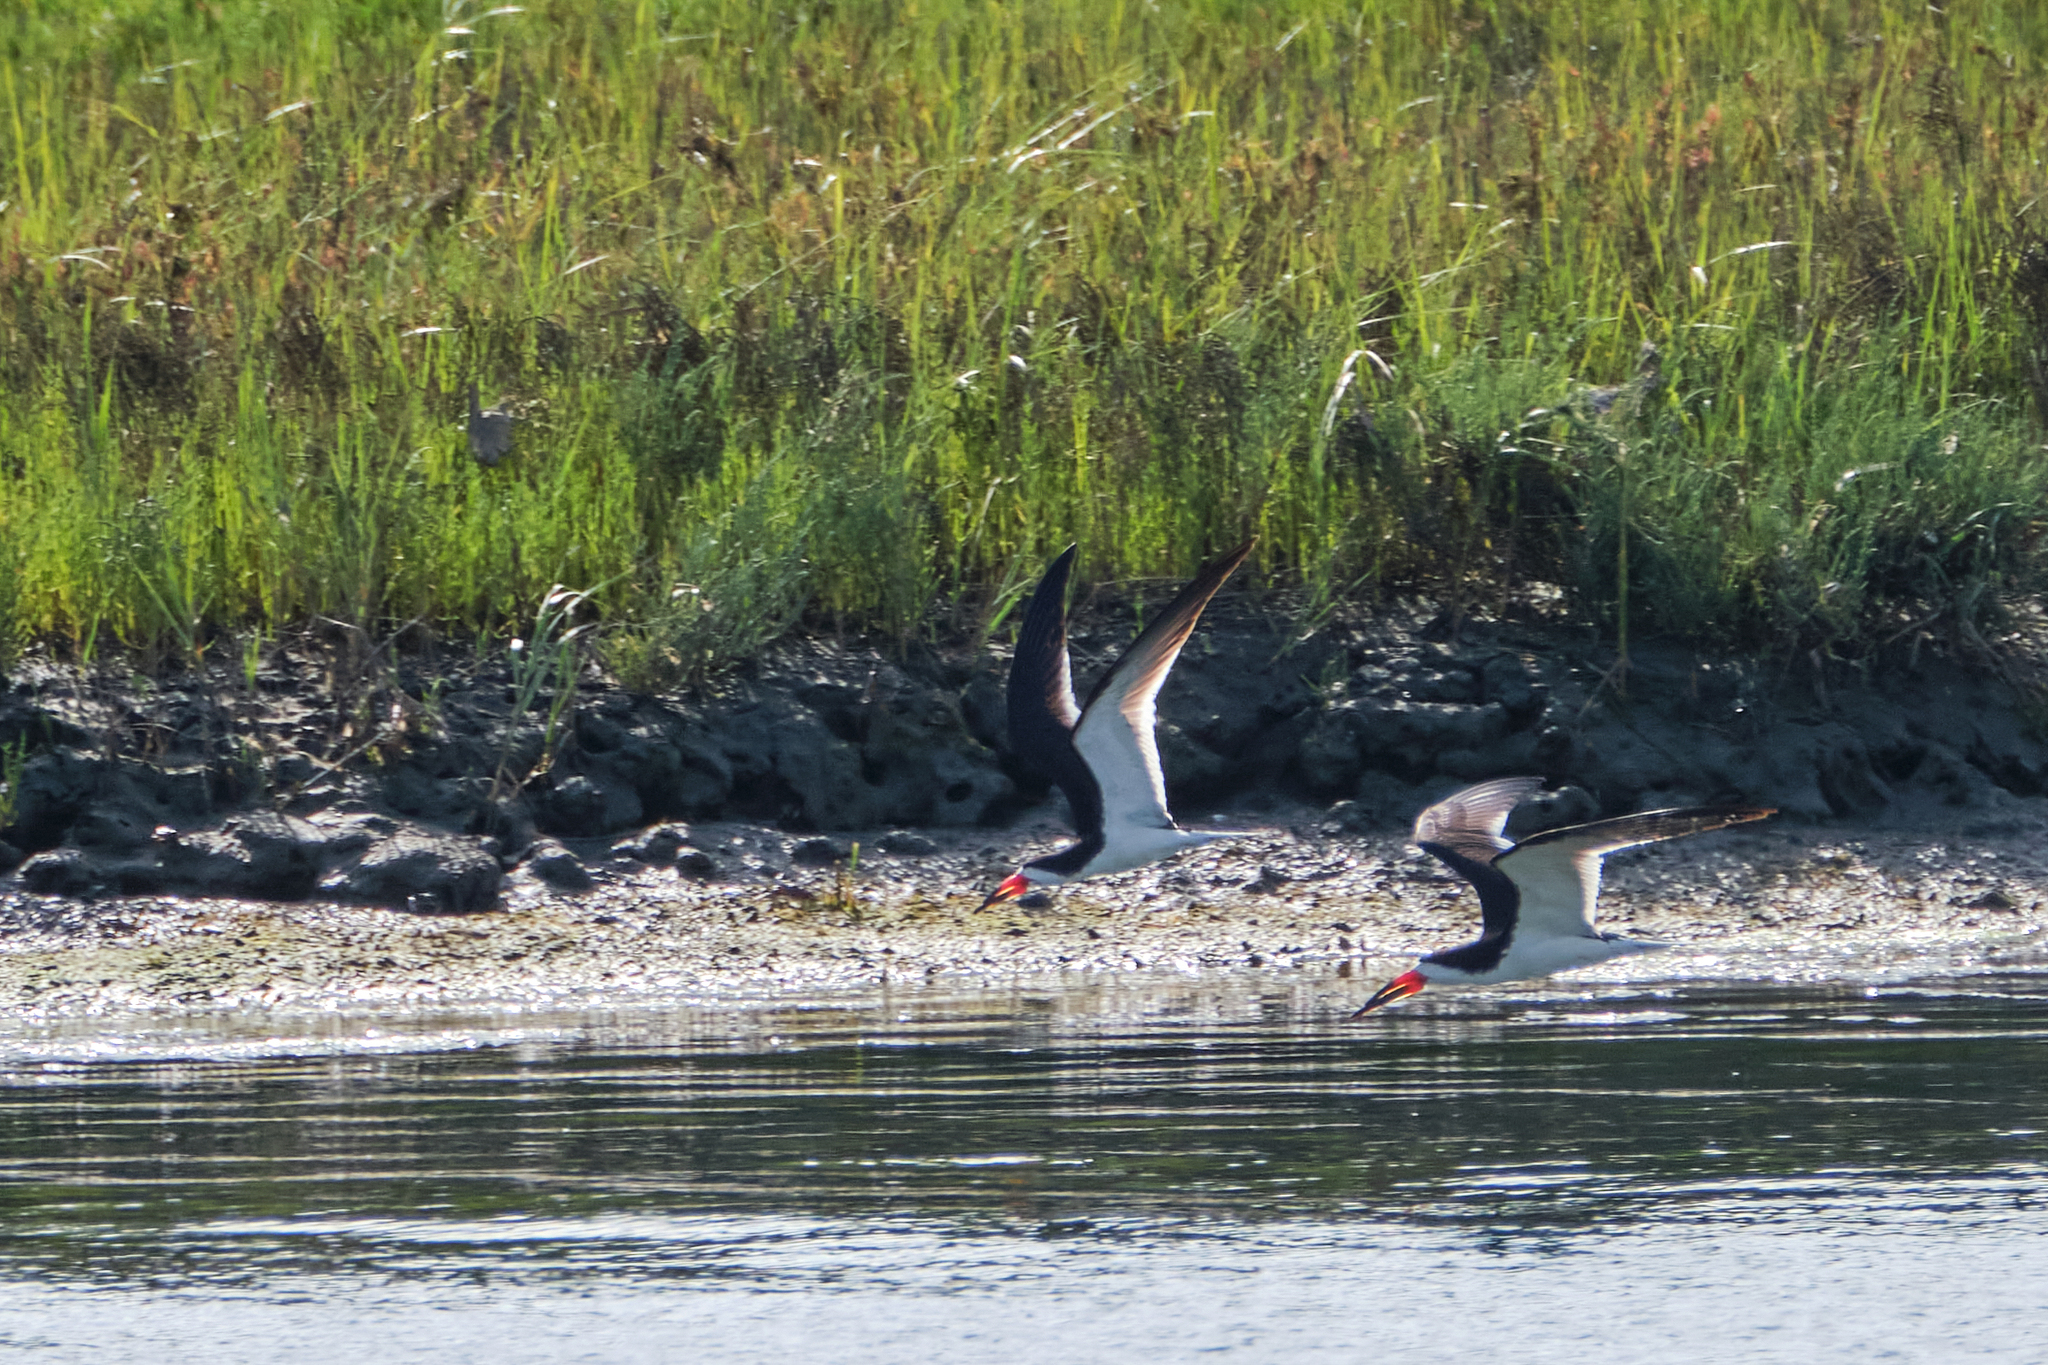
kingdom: Animalia
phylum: Chordata
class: Aves
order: Charadriiformes
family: Laridae
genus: Rynchops
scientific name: Rynchops niger
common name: Black skimmer
